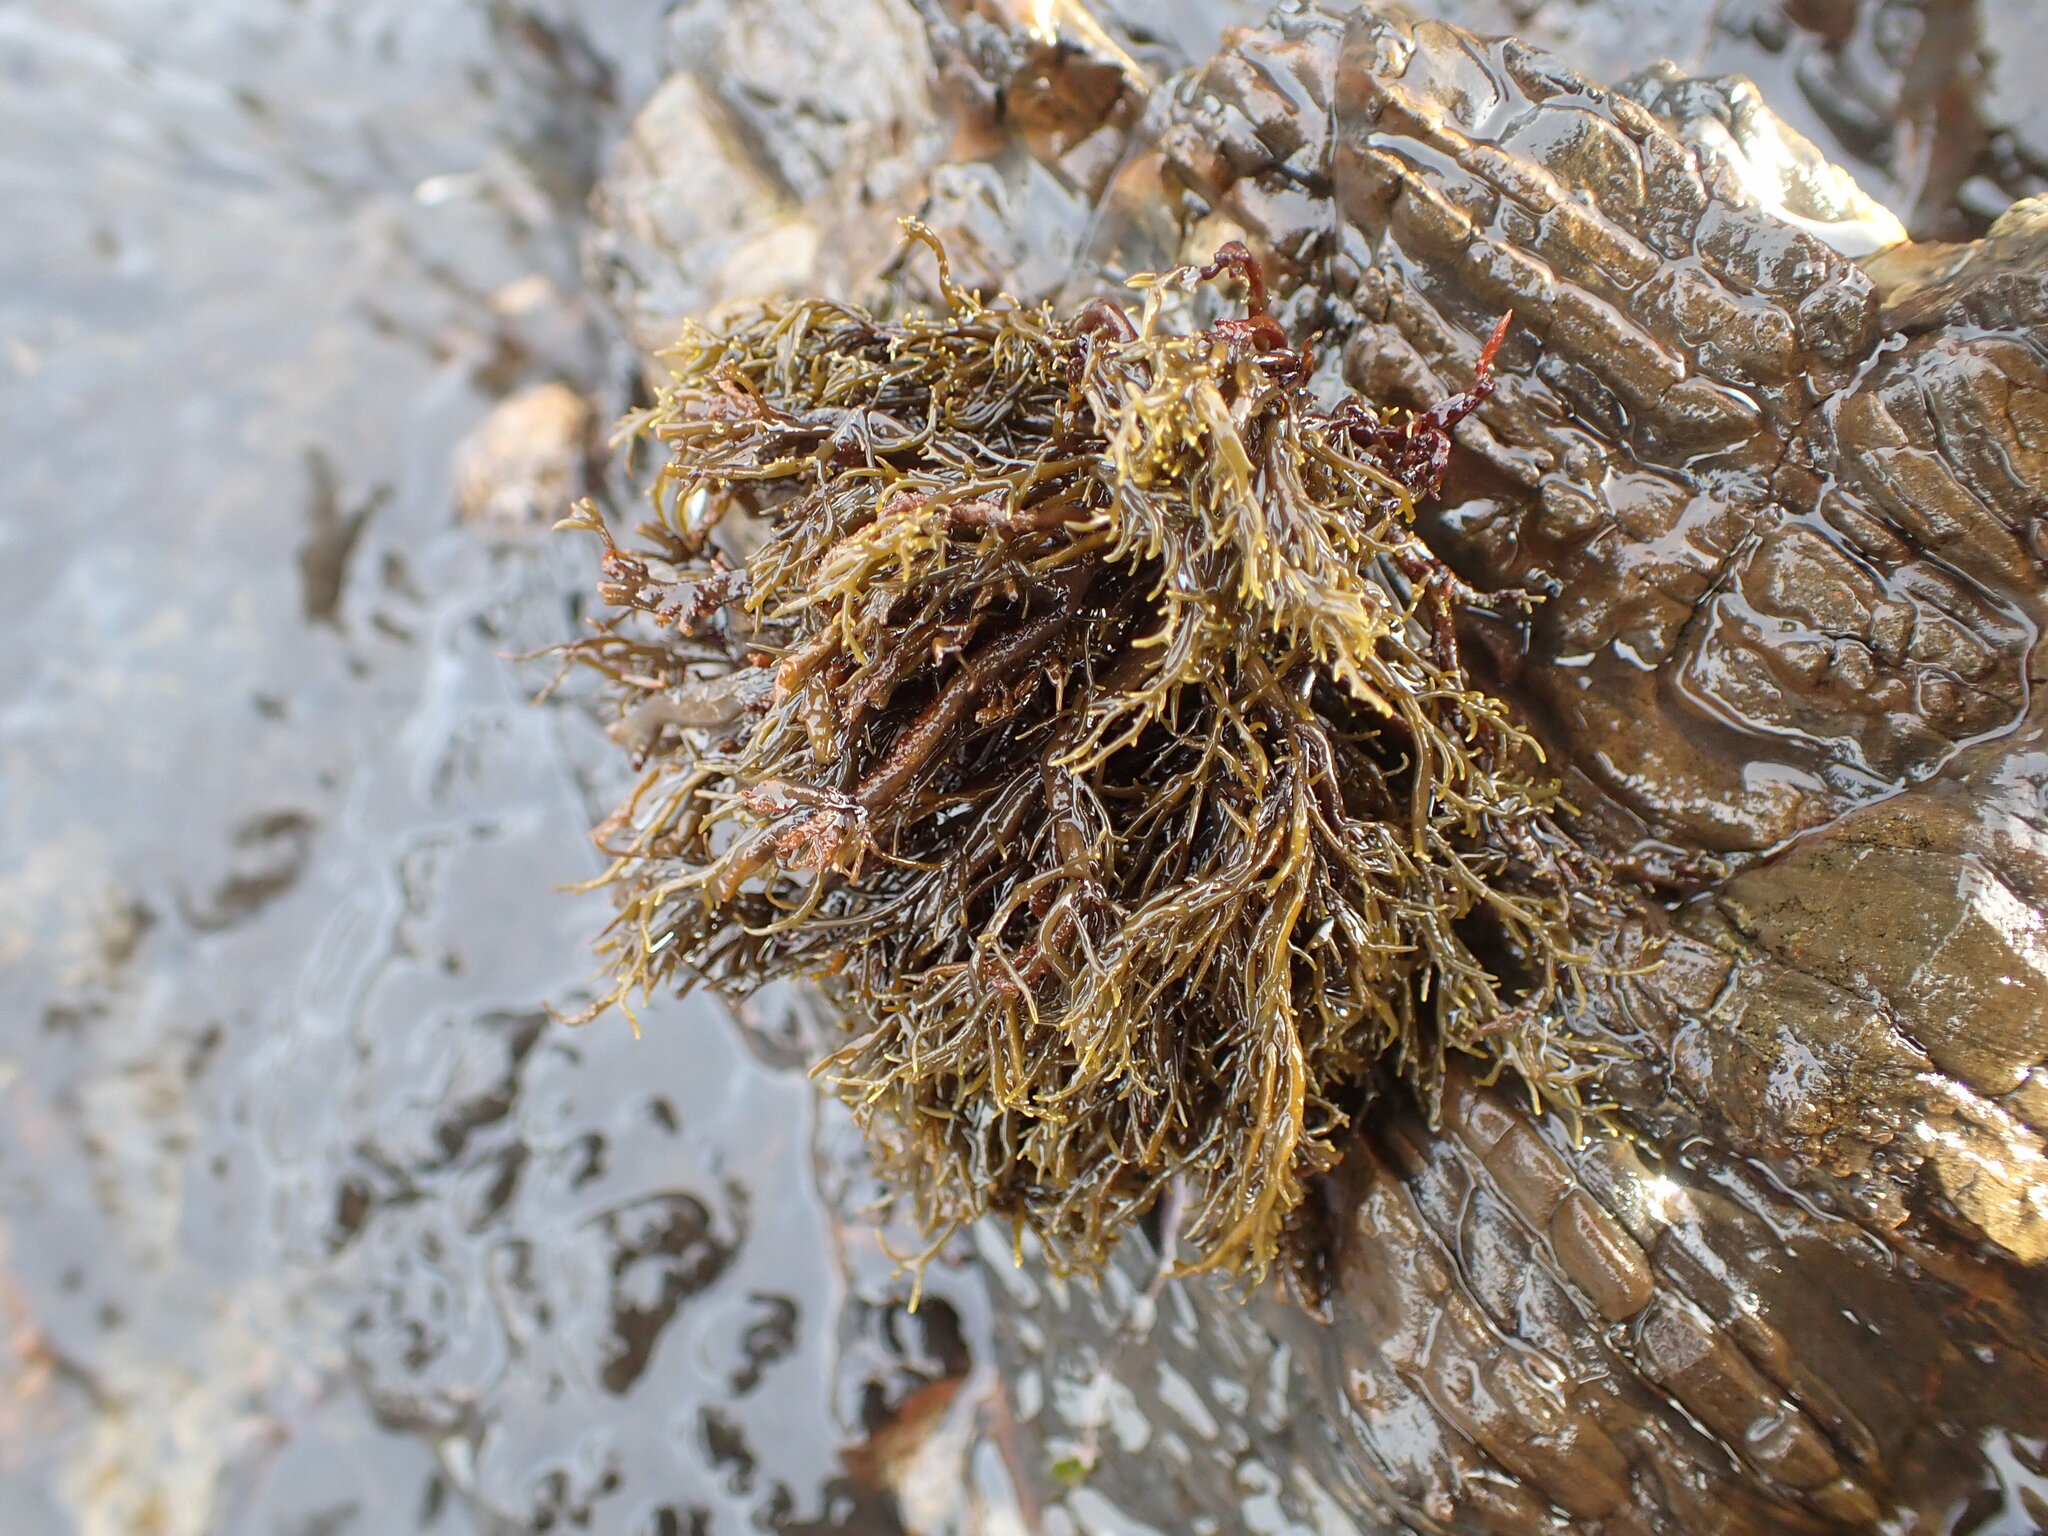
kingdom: Chromista
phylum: Ochrophyta
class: Phaeophyceae
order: Scytothamnales
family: Scytothamnaceae
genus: Scytothamnus
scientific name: Scytothamnus australis
